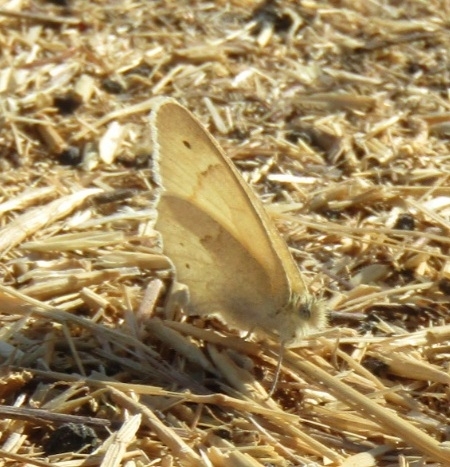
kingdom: Animalia
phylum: Arthropoda
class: Insecta
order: Lepidoptera
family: Nymphalidae
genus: Coenonympha
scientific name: Coenonympha california
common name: Common ringlet
